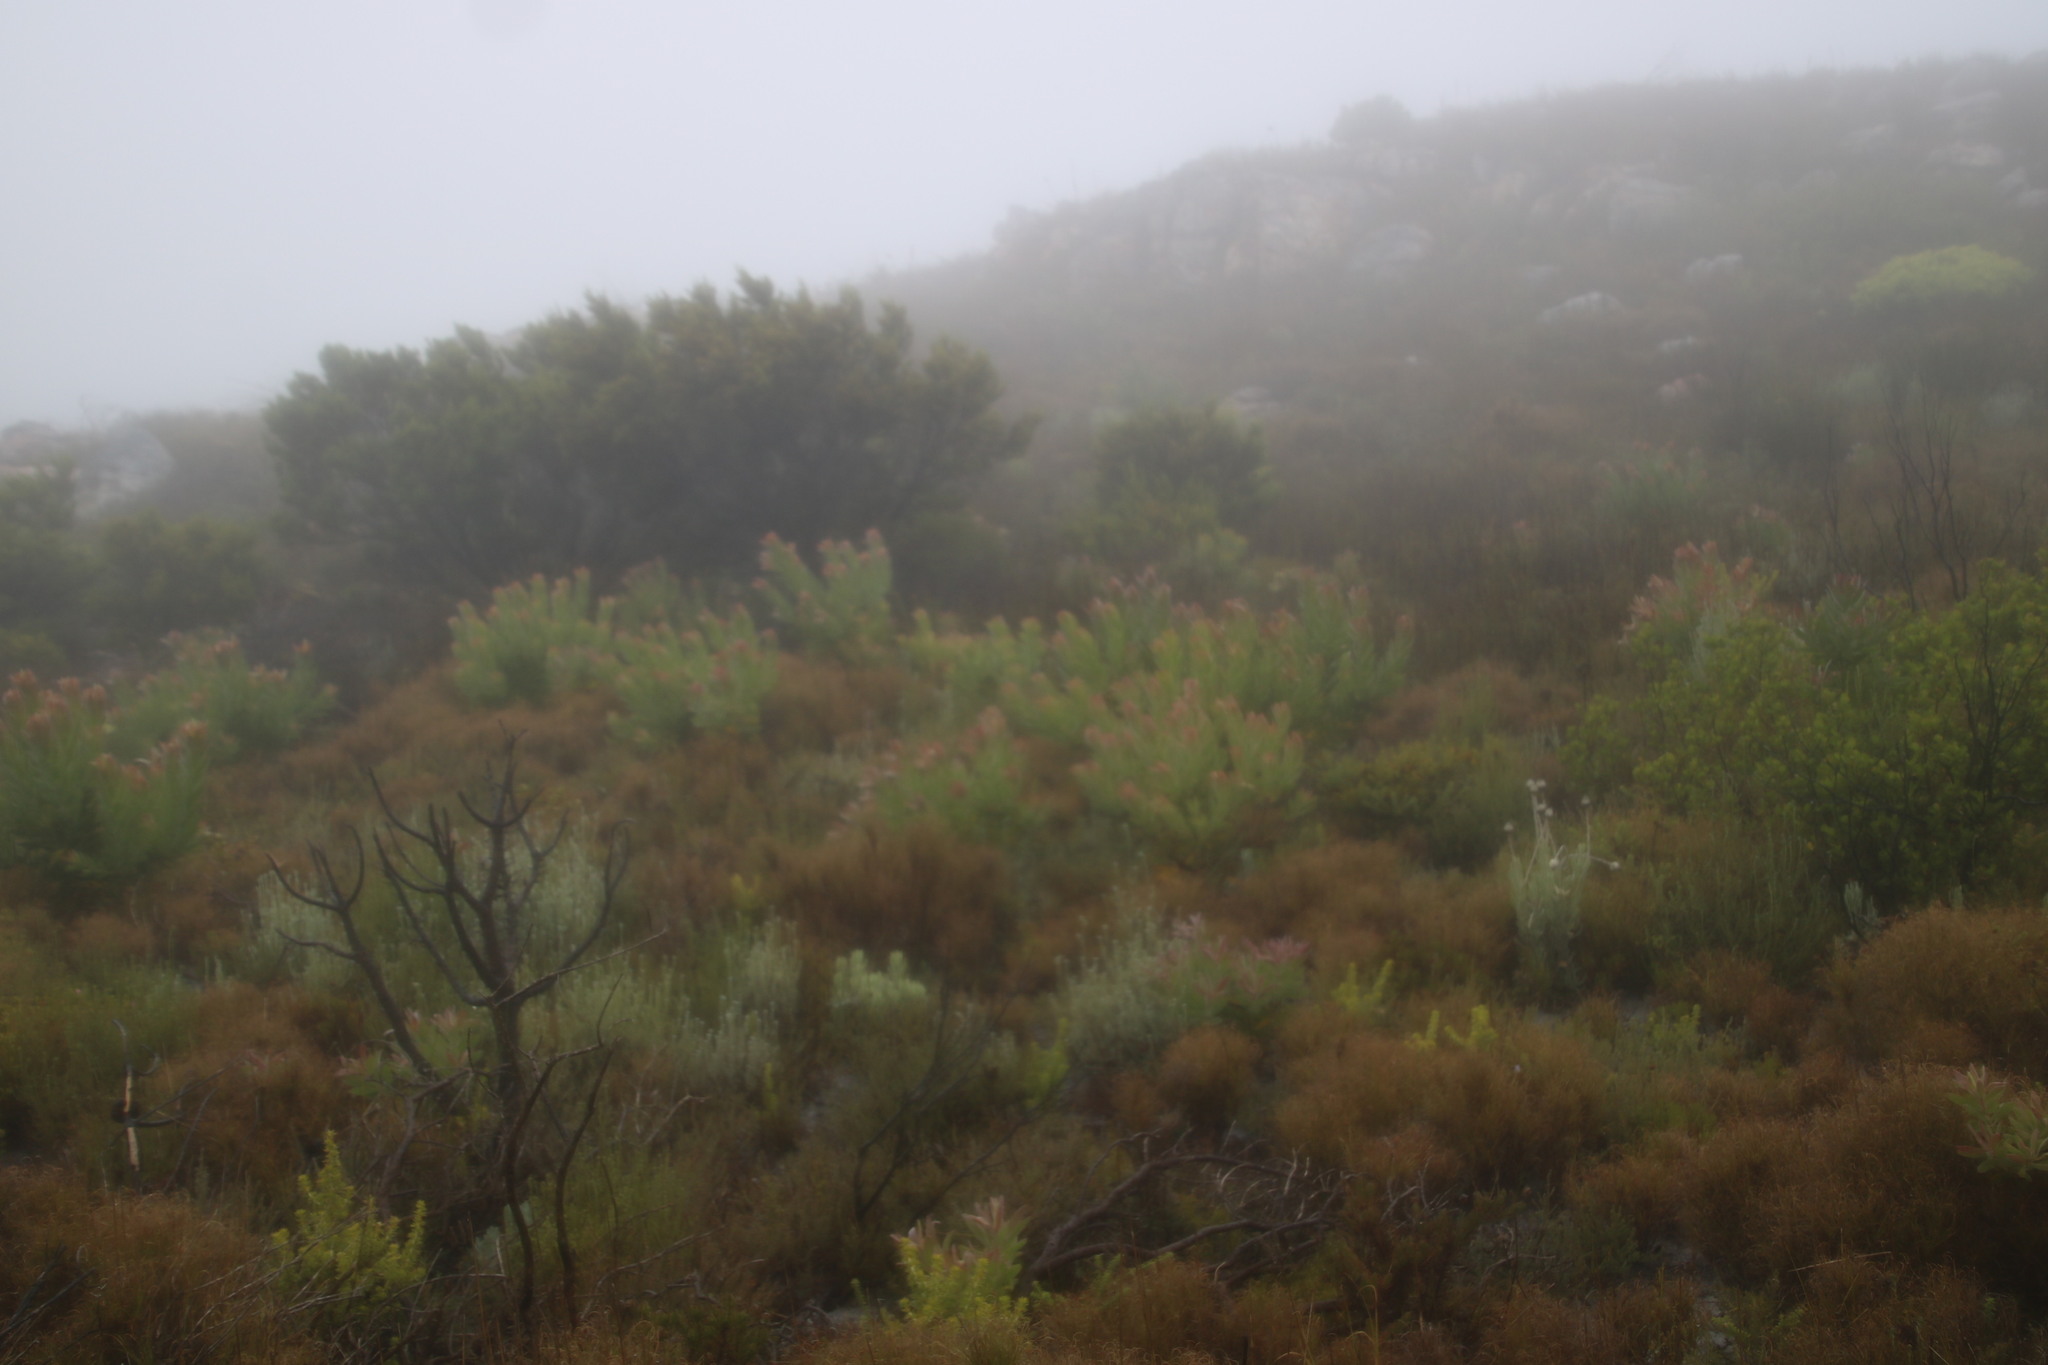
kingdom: Plantae
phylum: Tracheophyta
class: Magnoliopsida
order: Proteales
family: Proteaceae
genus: Leucadendron
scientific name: Leucadendron laureolum
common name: Golden sunshinebush
